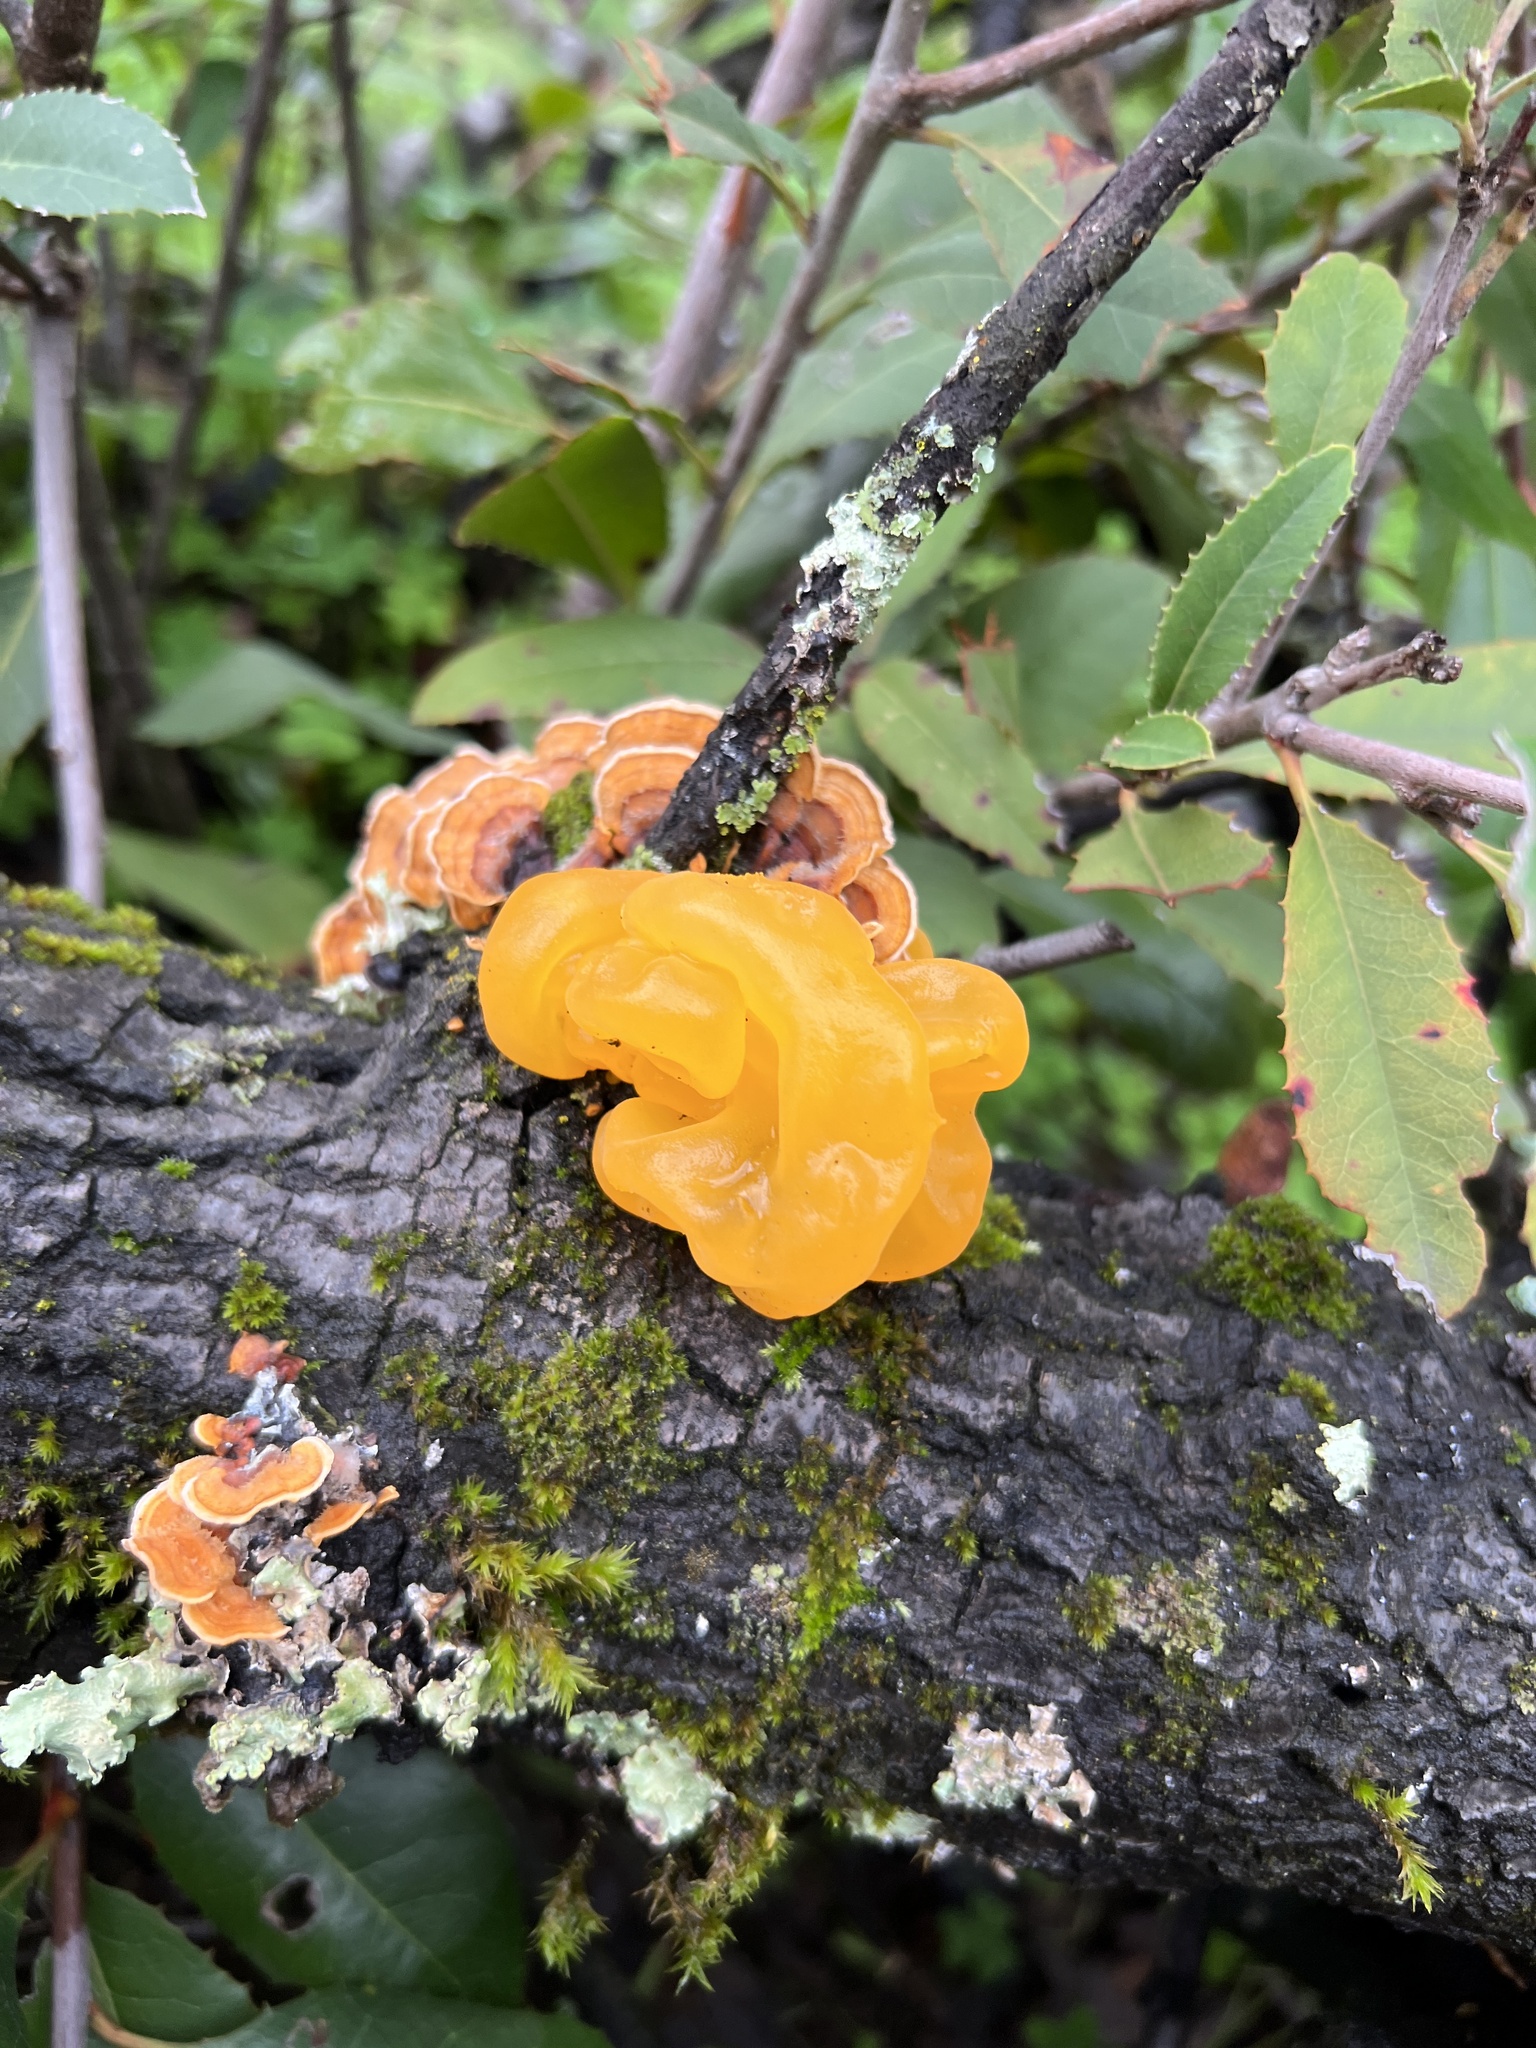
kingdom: Fungi
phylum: Basidiomycota
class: Tremellomycetes
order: Tremellales
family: Naemateliaceae
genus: Naematelia
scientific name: Naematelia aurantia
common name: Golden ear
